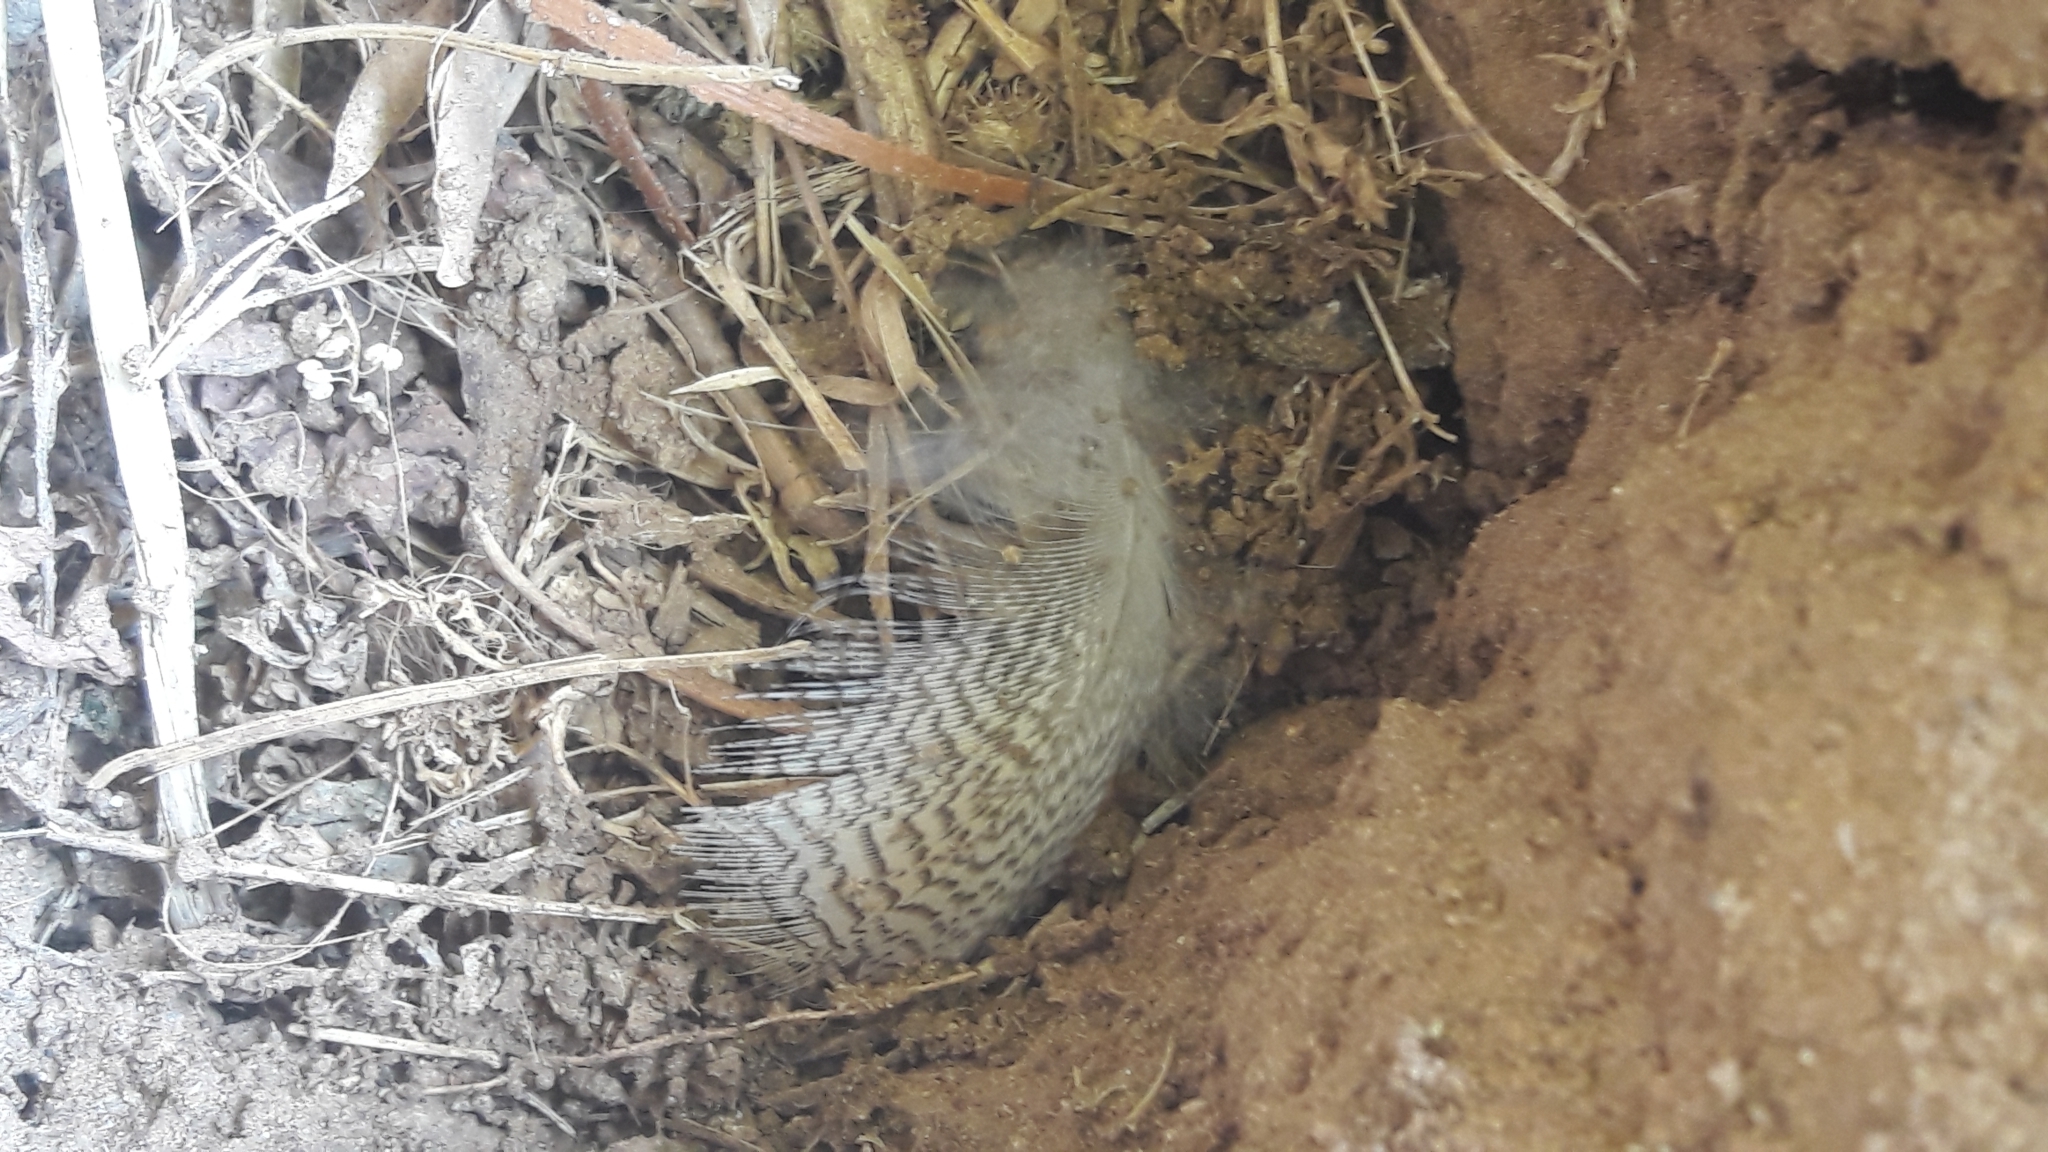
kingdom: Animalia
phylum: Chordata
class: Aves
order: Anseriformes
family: Anatidae
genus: Anas
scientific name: Anas platyrhynchos
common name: Mallard
